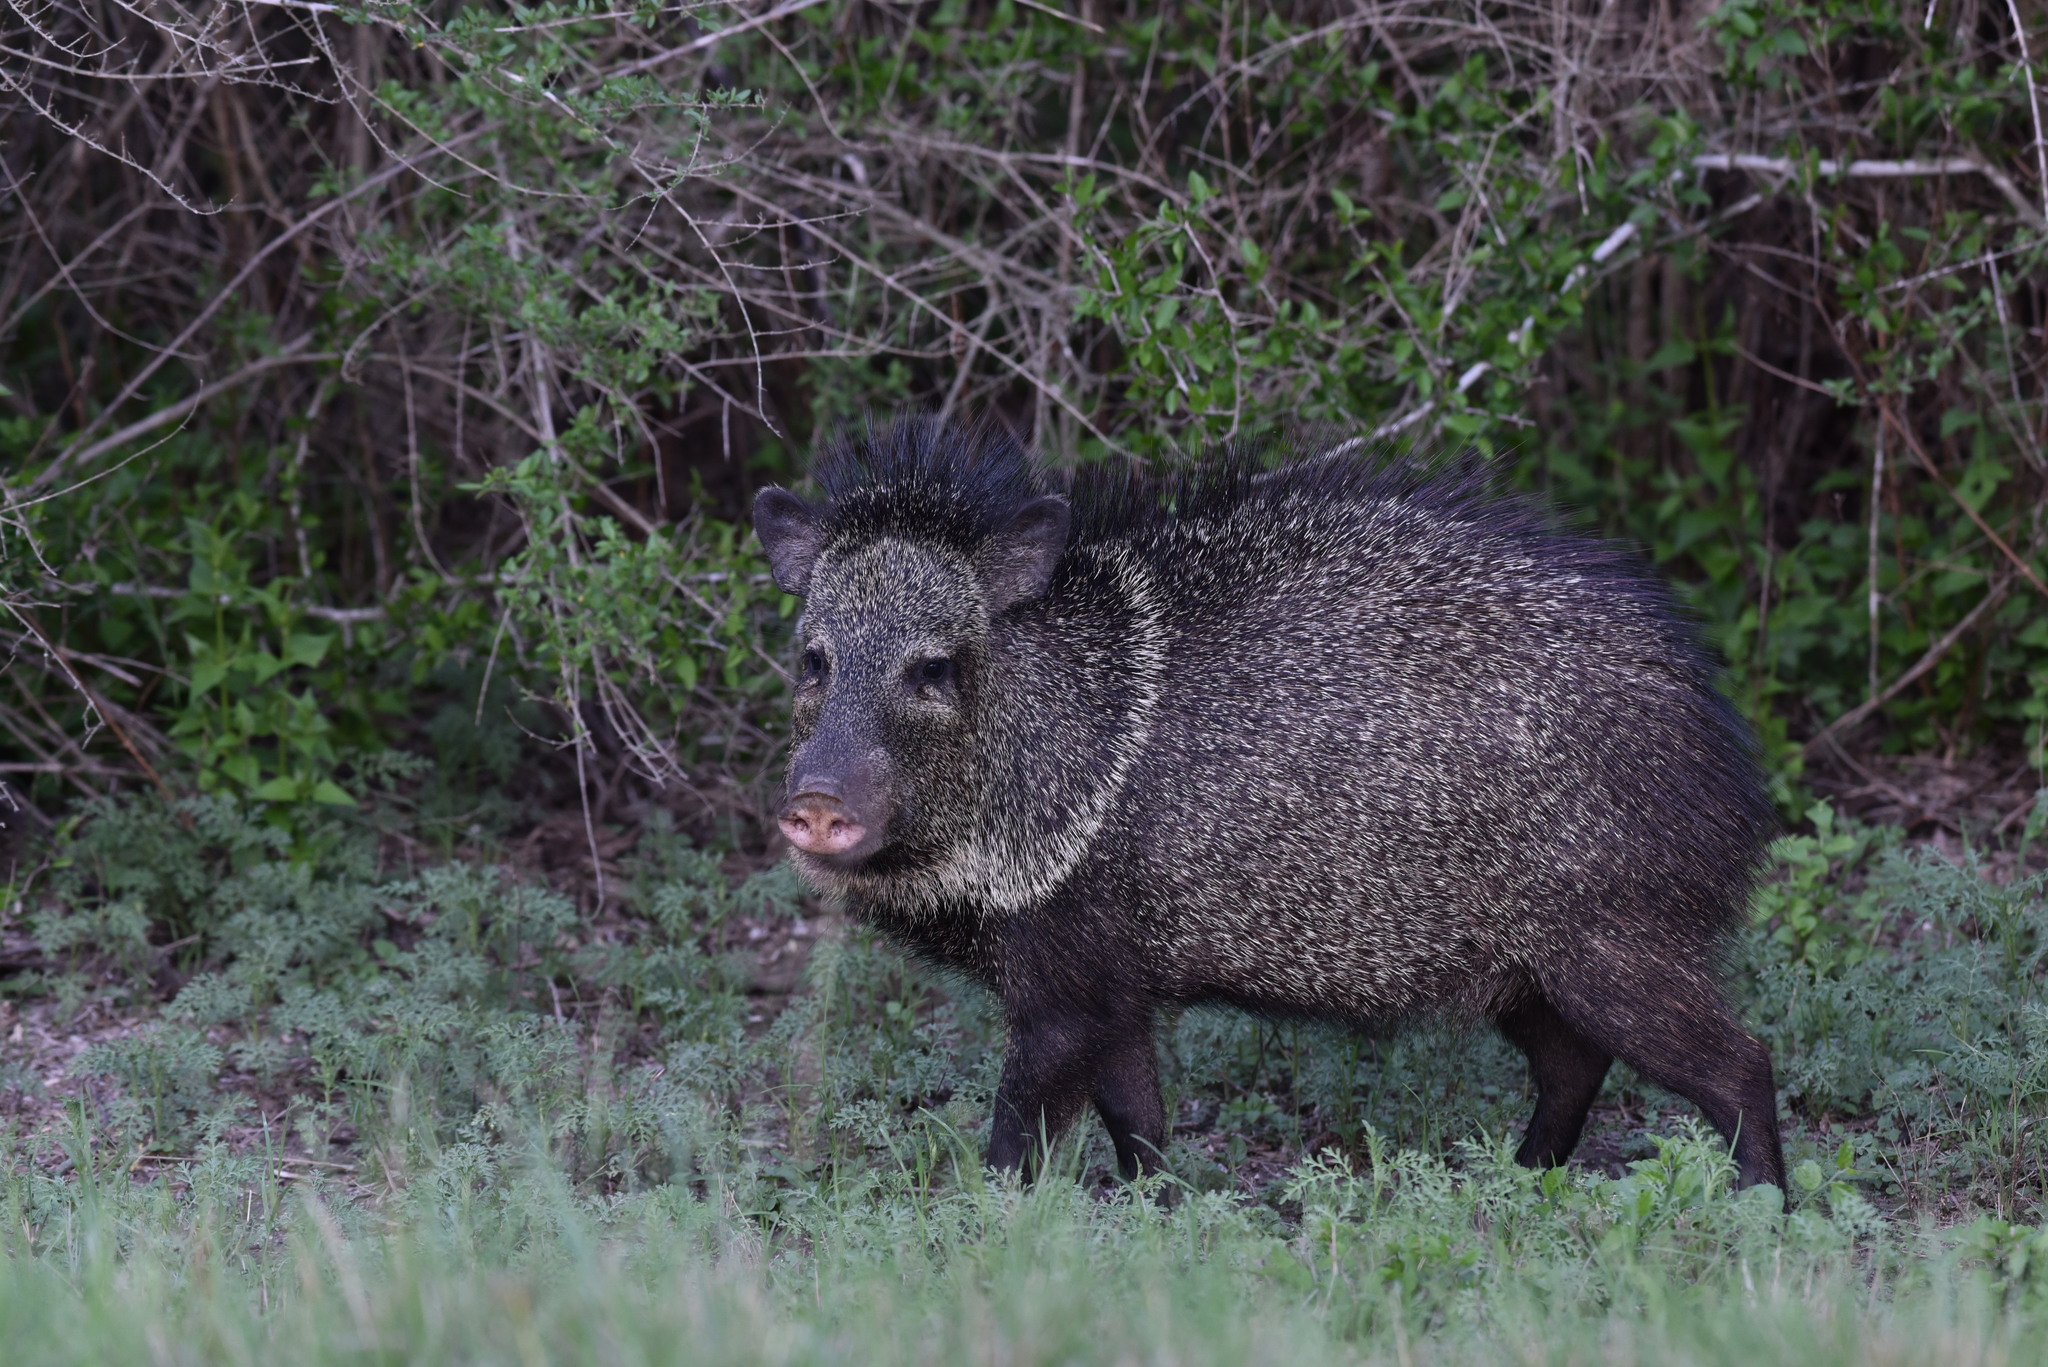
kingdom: Animalia
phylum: Chordata
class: Mammalia
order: Artiodactyla
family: Tayassuidae
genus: Pecari
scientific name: Pecari tajacu
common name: Collared peccary
